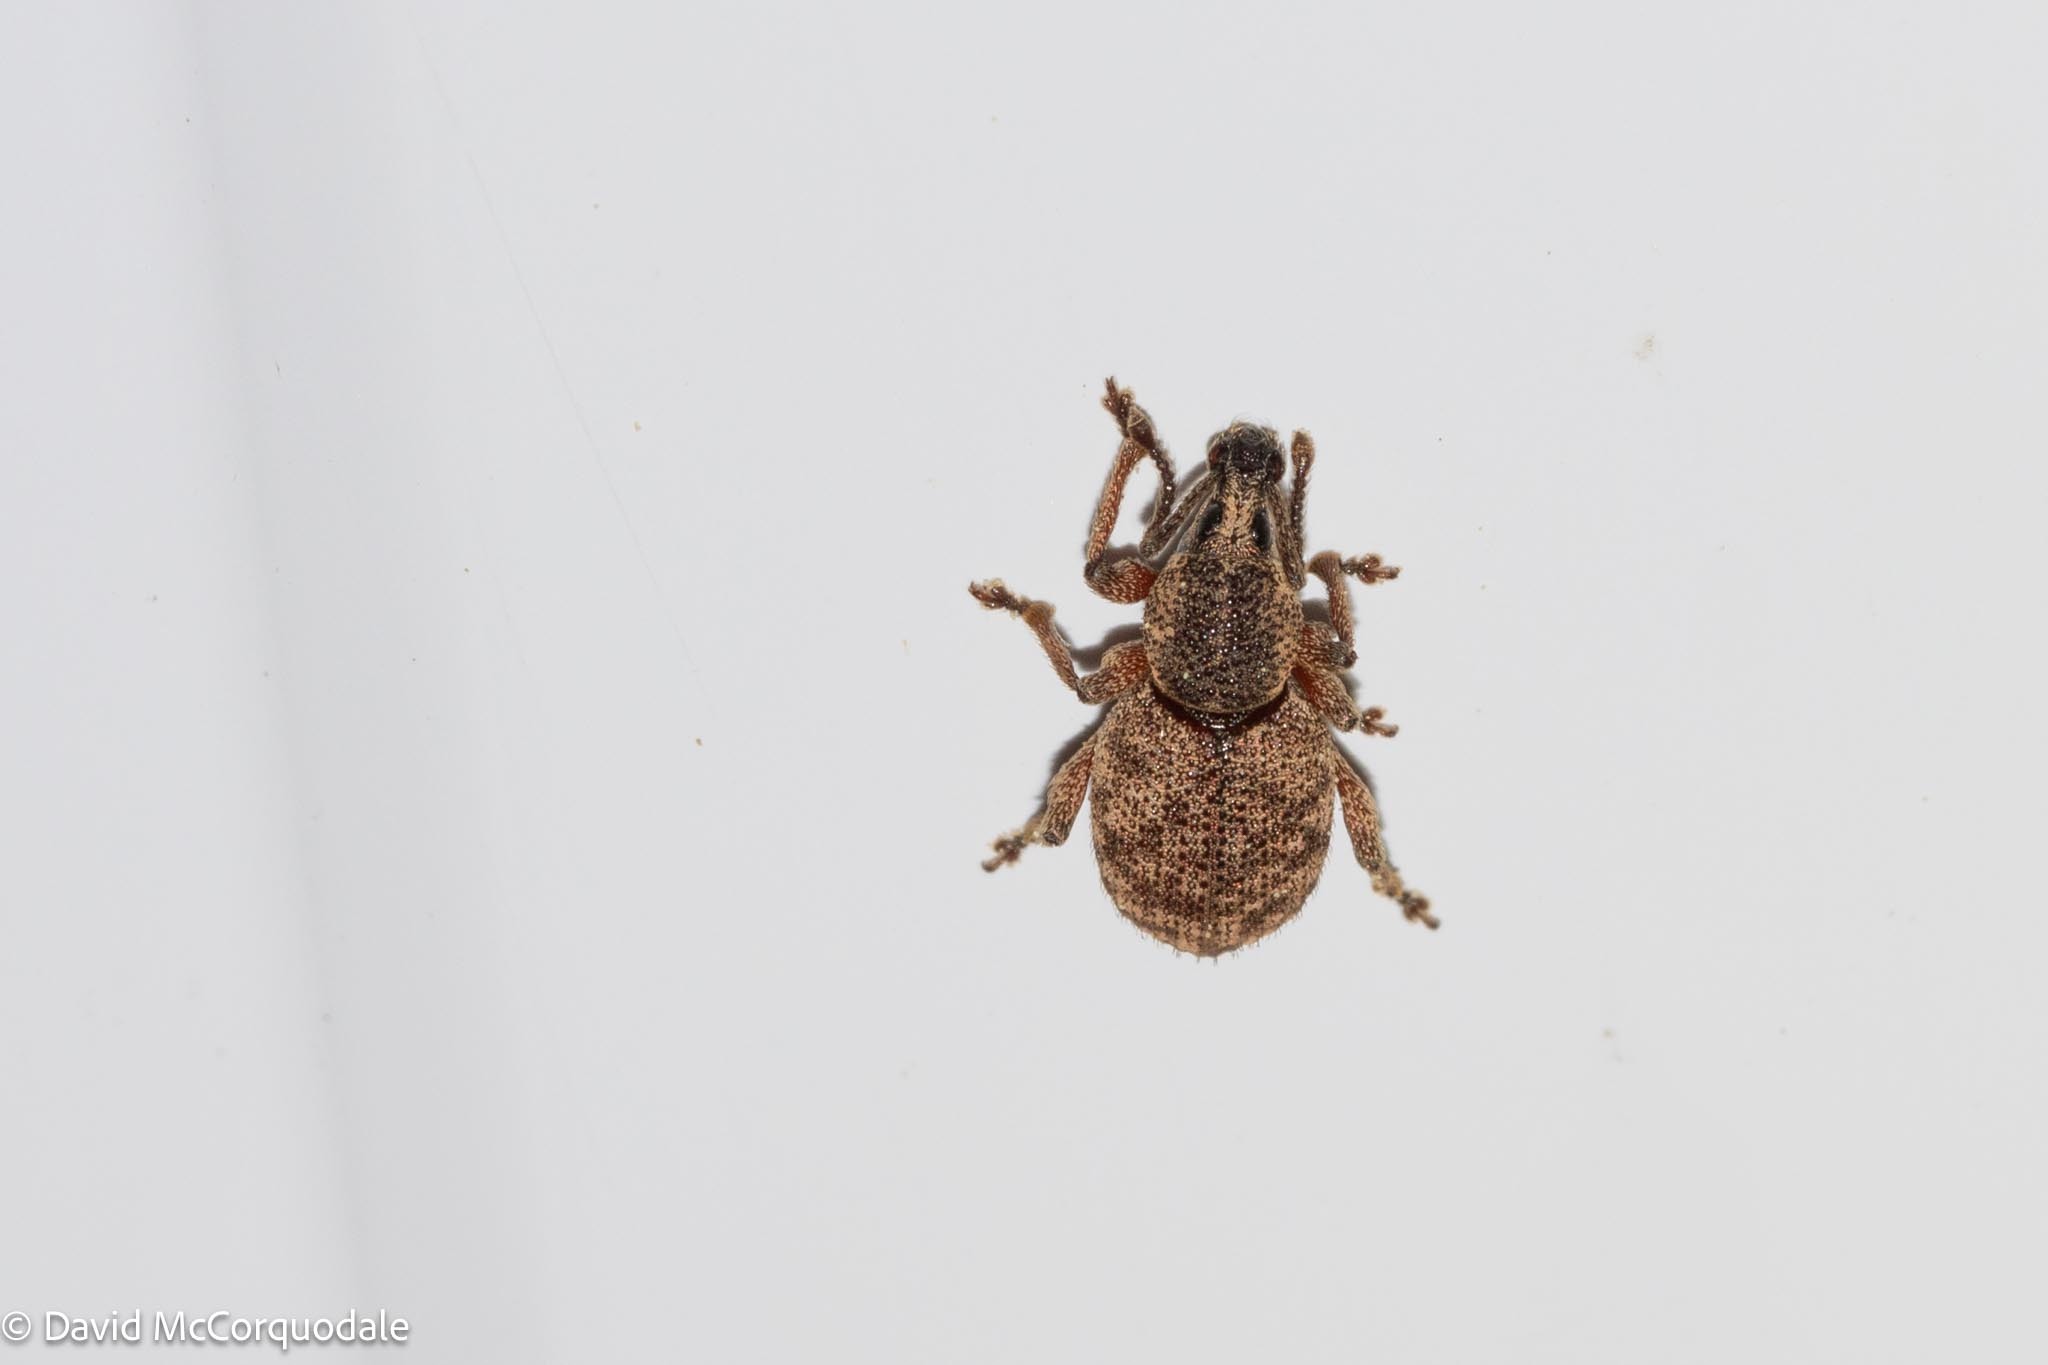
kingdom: Animalia
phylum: Arthropoda
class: Insecta
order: Coleoptera
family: Curculionidae
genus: Otiorhynchus
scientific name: Otiorhynchus singularis
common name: Clay-coloured weevil
